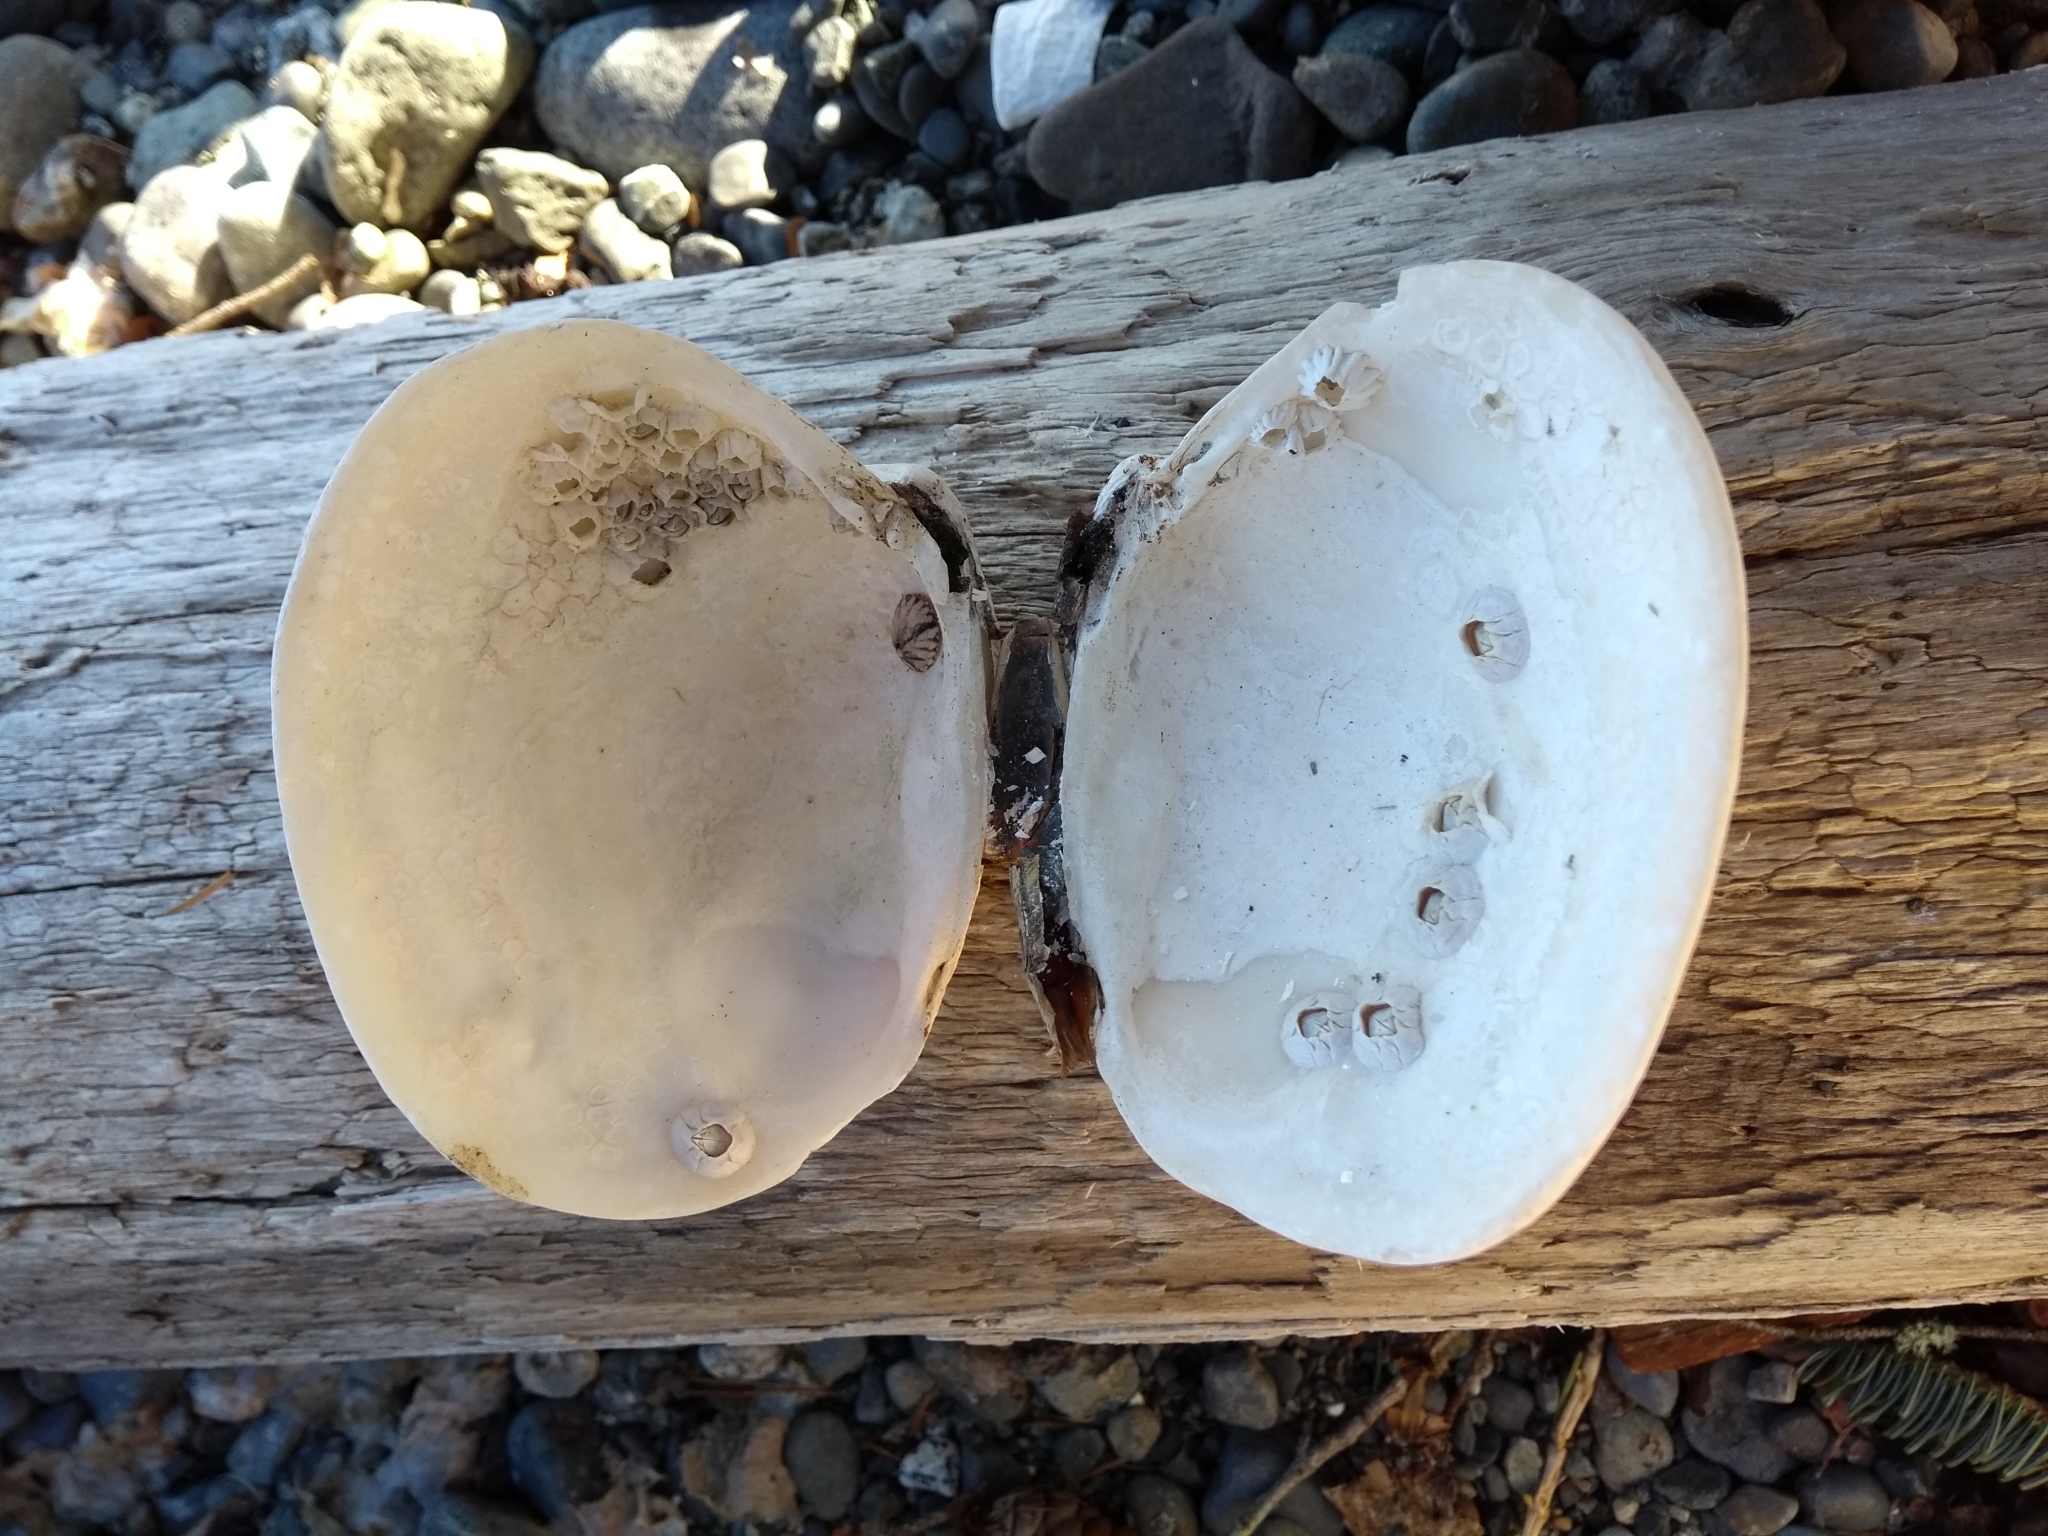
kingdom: Animalia
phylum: Mollusca
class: Bivalvia
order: Venerida
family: Veneridae
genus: Saxidomus
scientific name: Saxidomus gigantea
